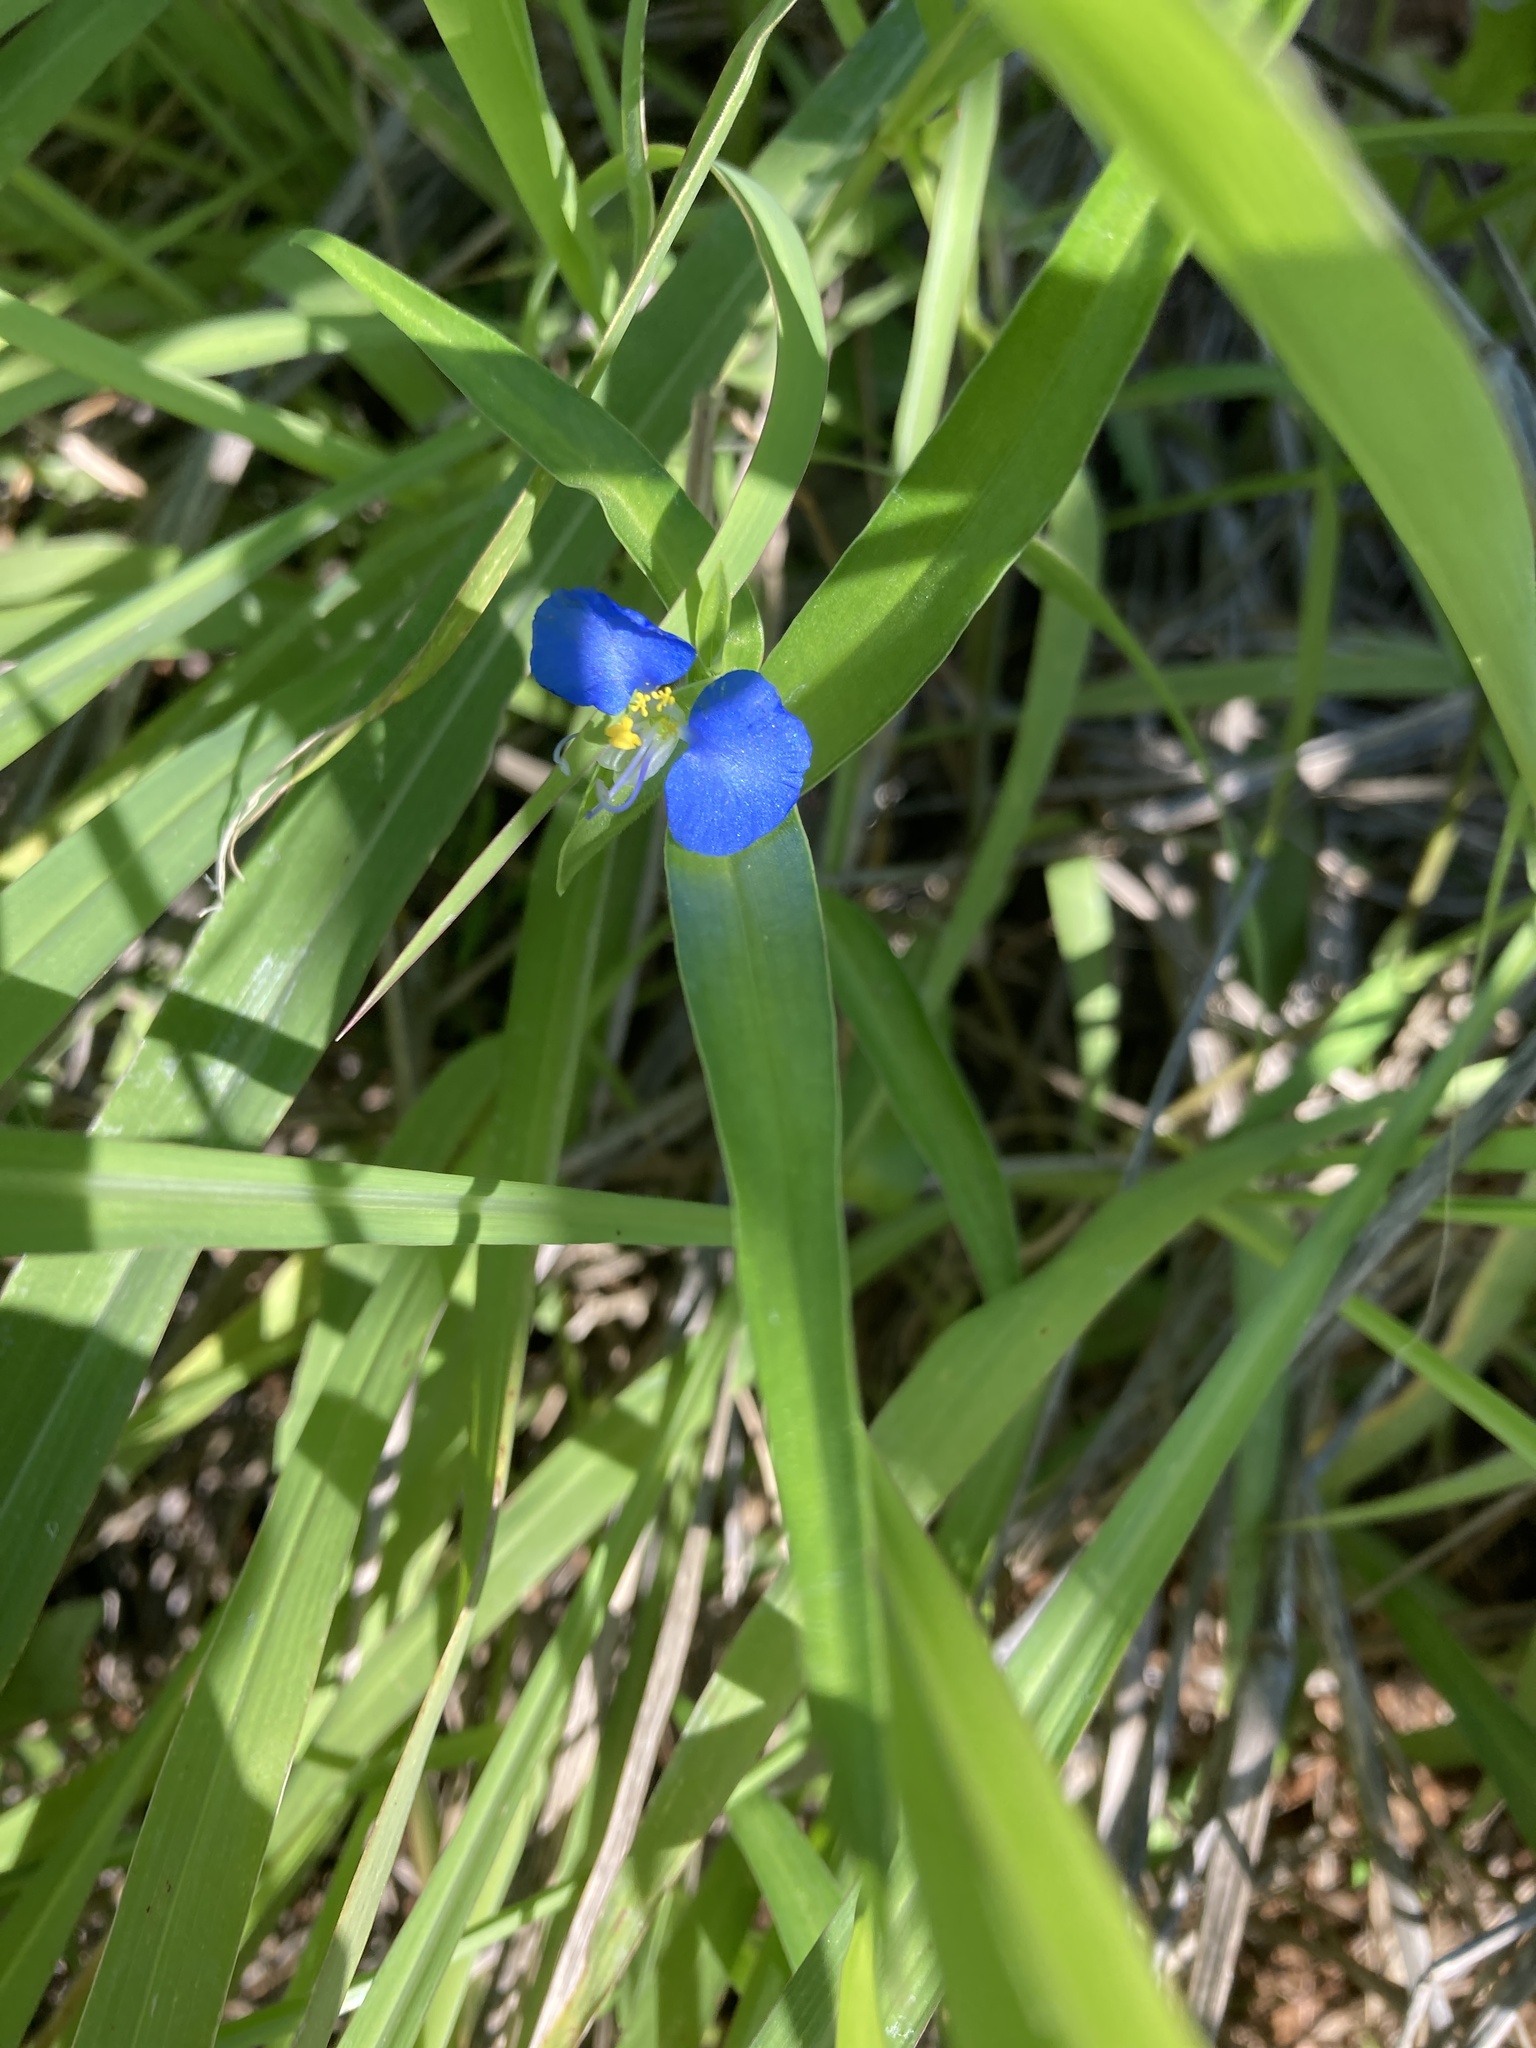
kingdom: Plantae
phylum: Tracheophyta
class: Liliopsida
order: Commelinales
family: Commelinaceae
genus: Commelina
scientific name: Commelina erecta
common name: Blousel blommetjie
